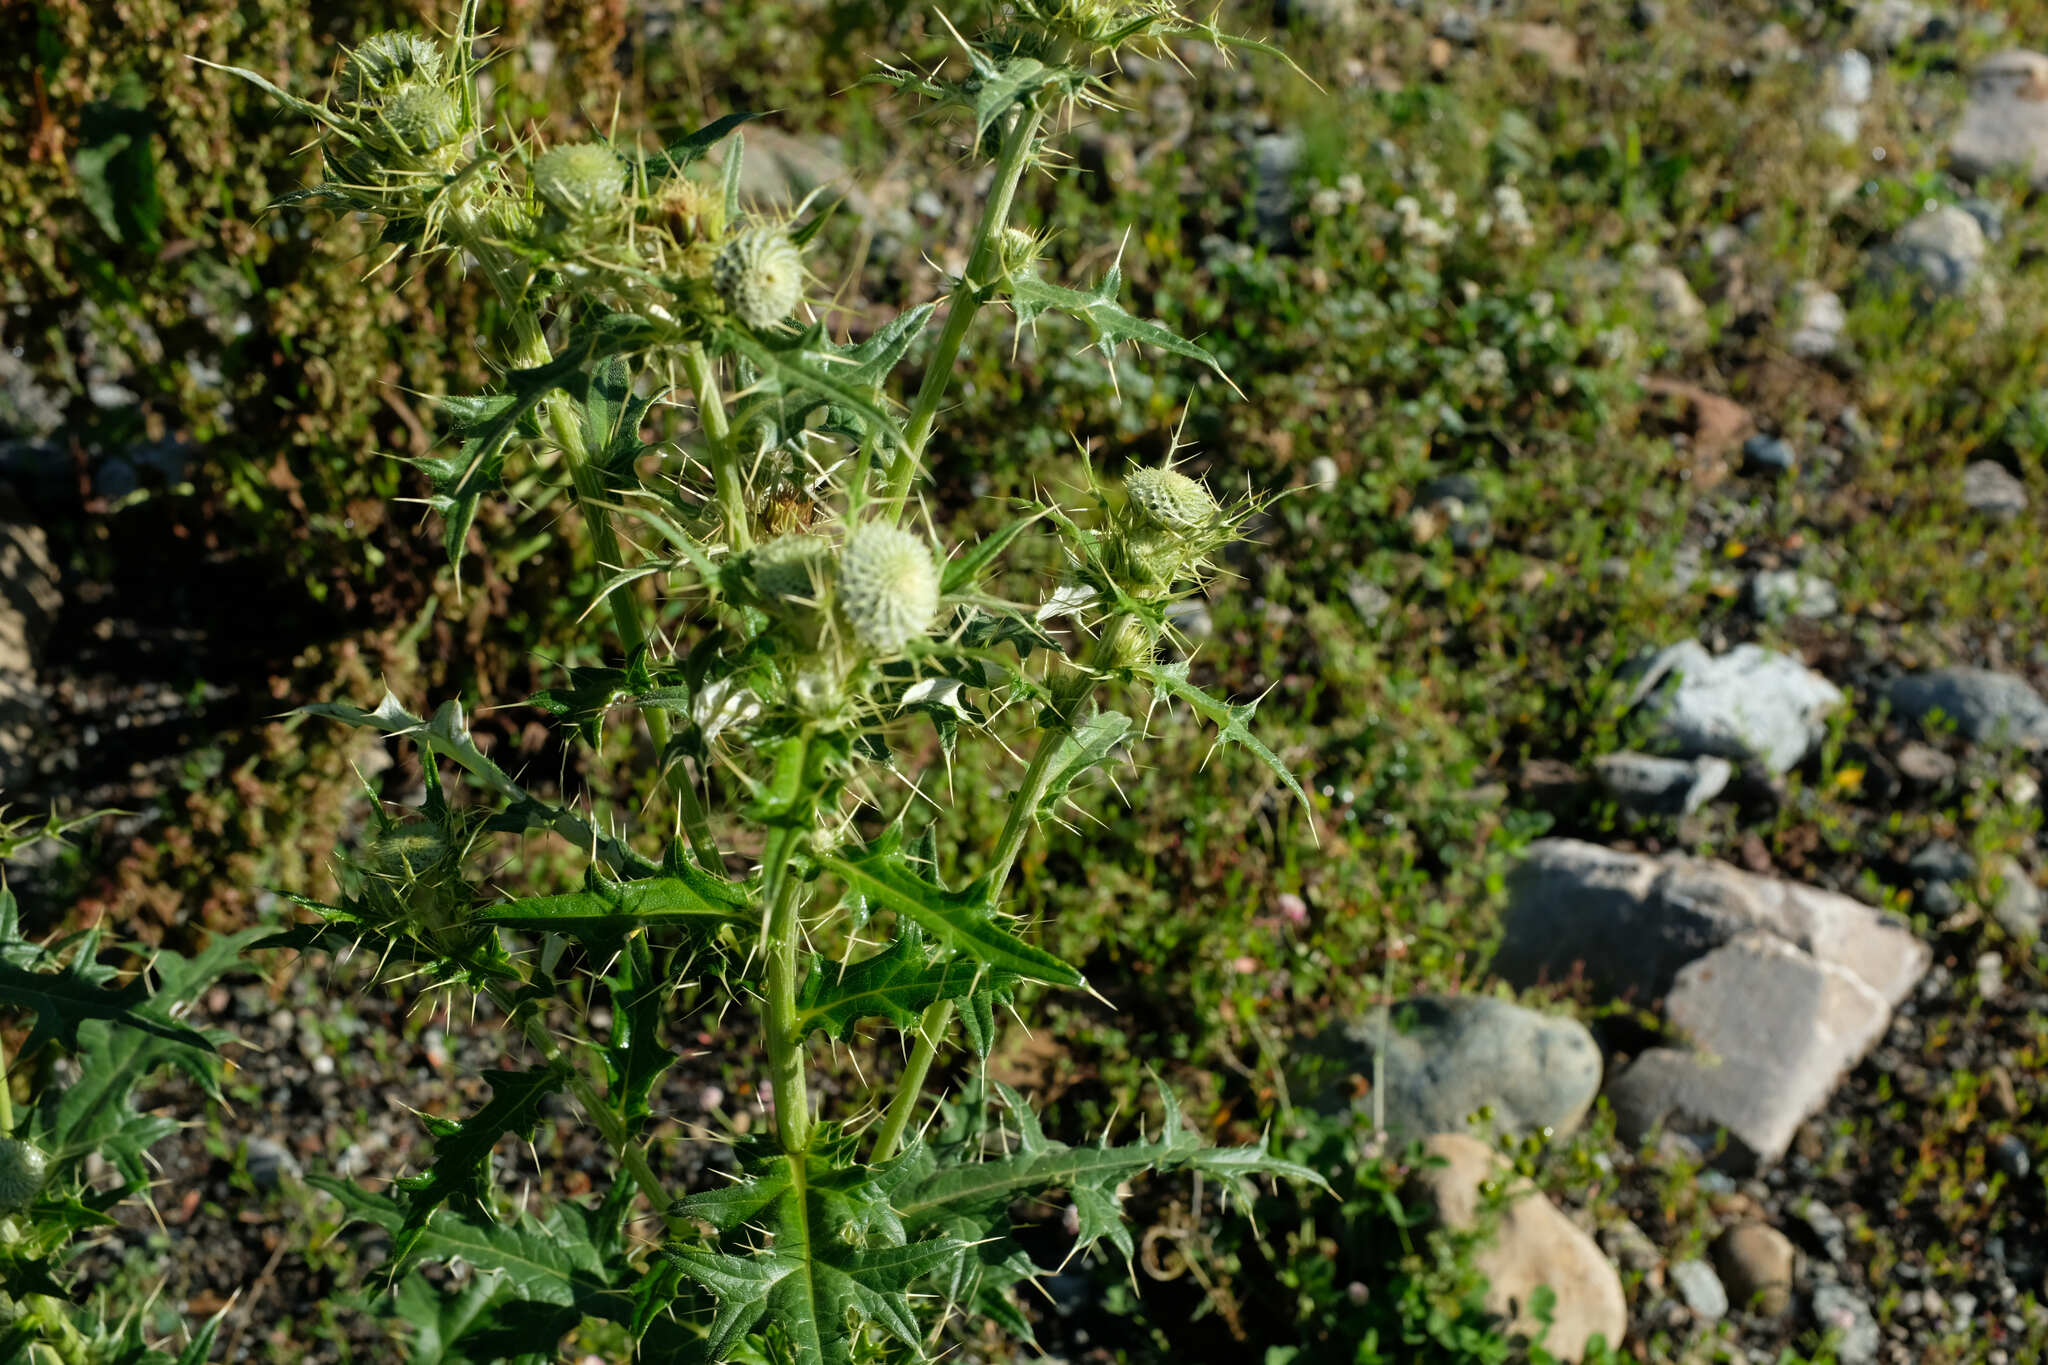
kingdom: Plantae
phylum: Tracheophyta
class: Magnoliopsida
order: Asterales
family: Asteraceae
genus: Lophiolepis
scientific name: Lophiolepis chlorocoma
